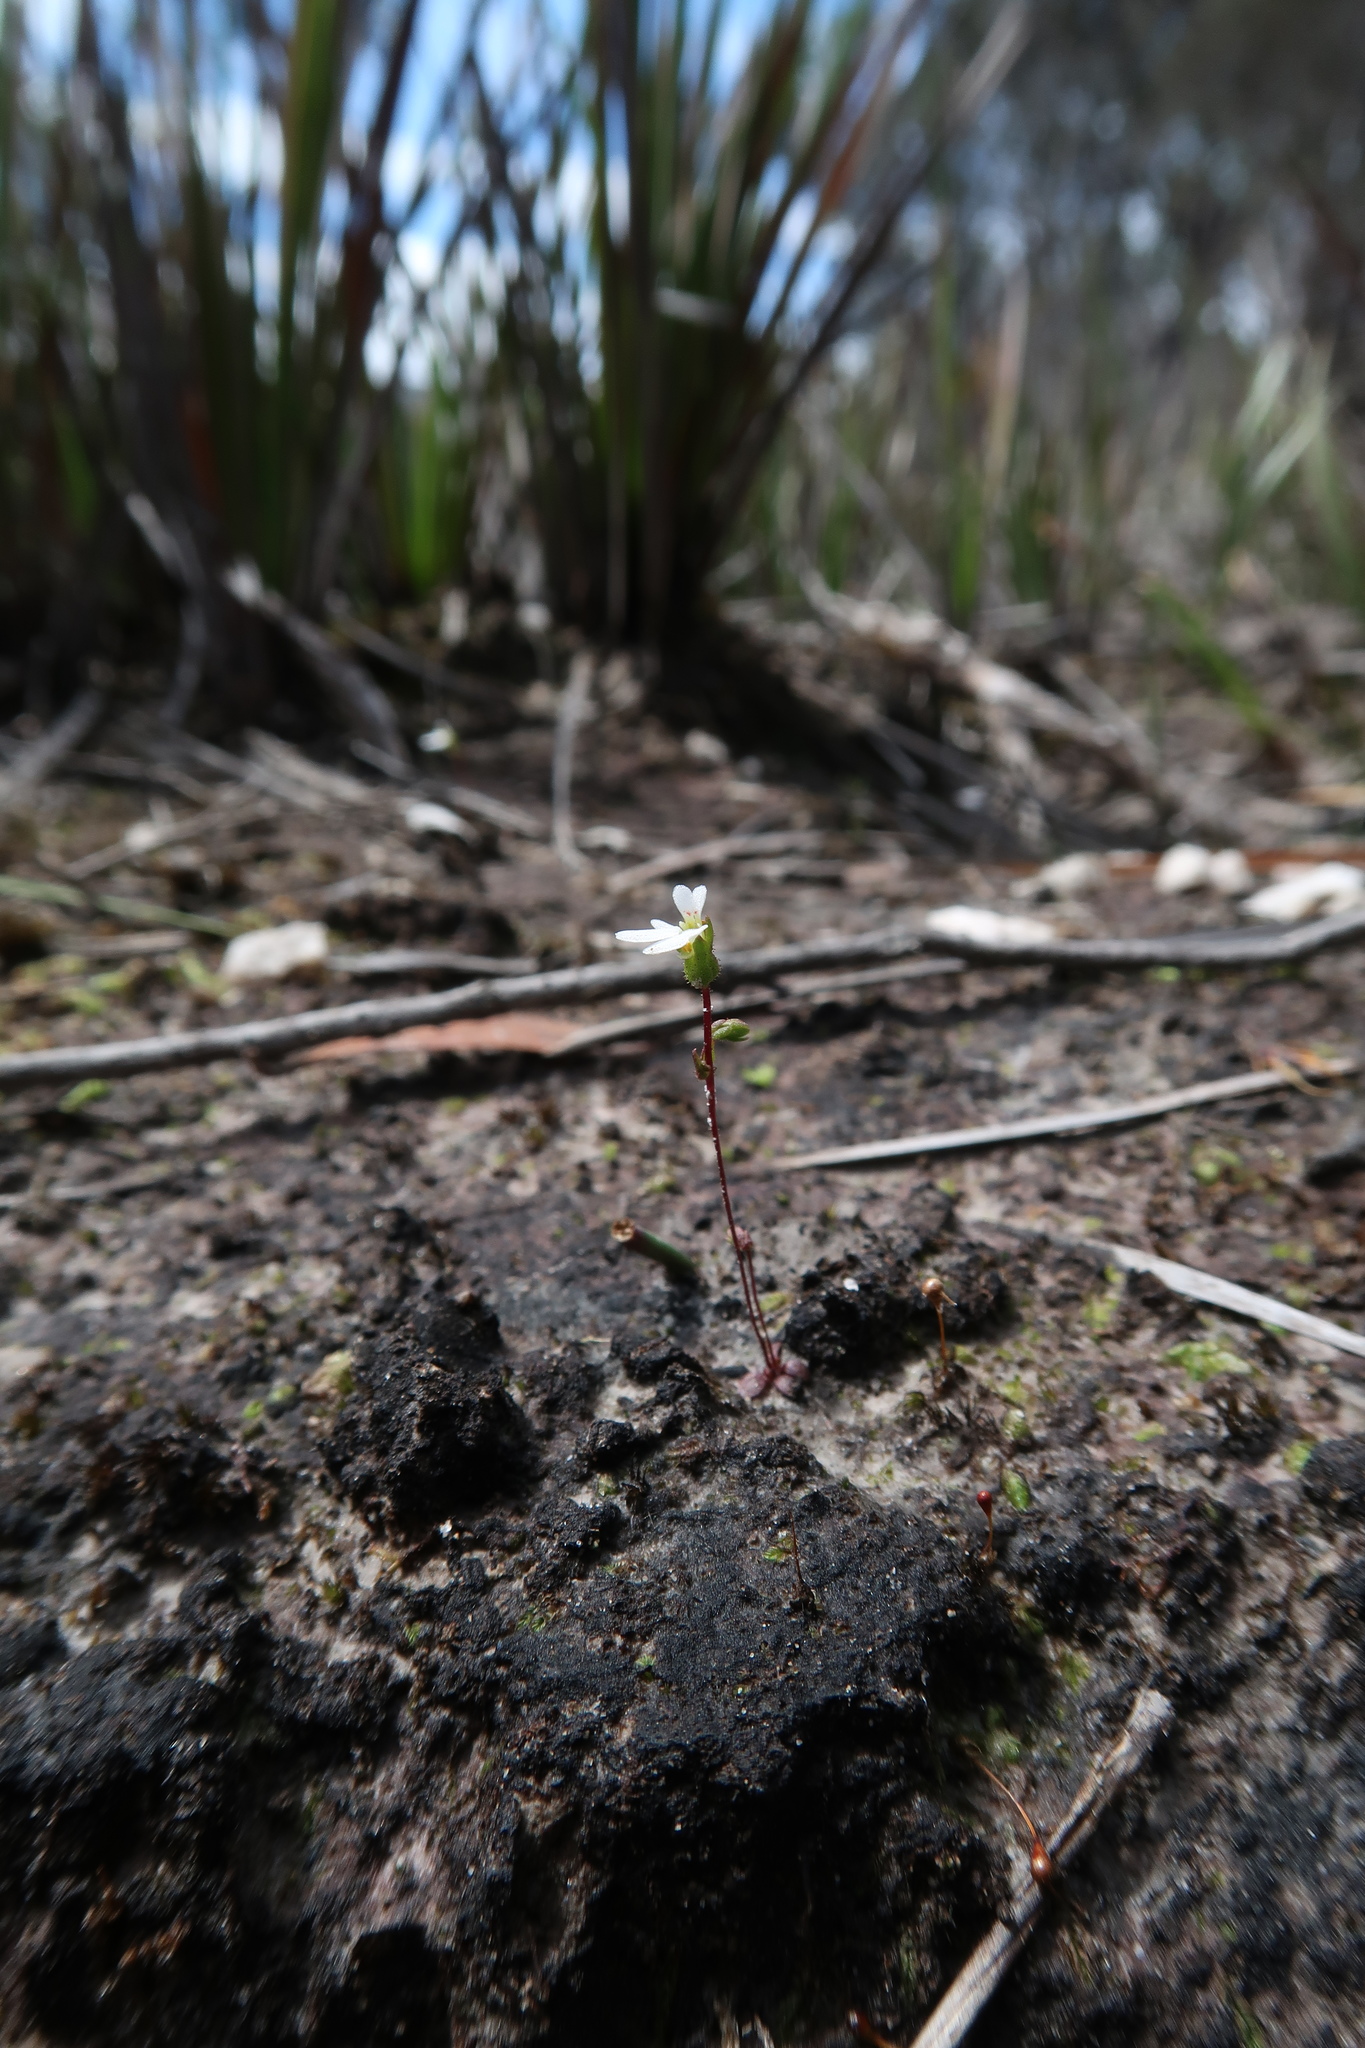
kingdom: Plantae
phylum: Tracheophyta
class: Magnoliopsida
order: Asterales
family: Stylidiaceae
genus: Stylidium
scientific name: Stylidium perpusillum
